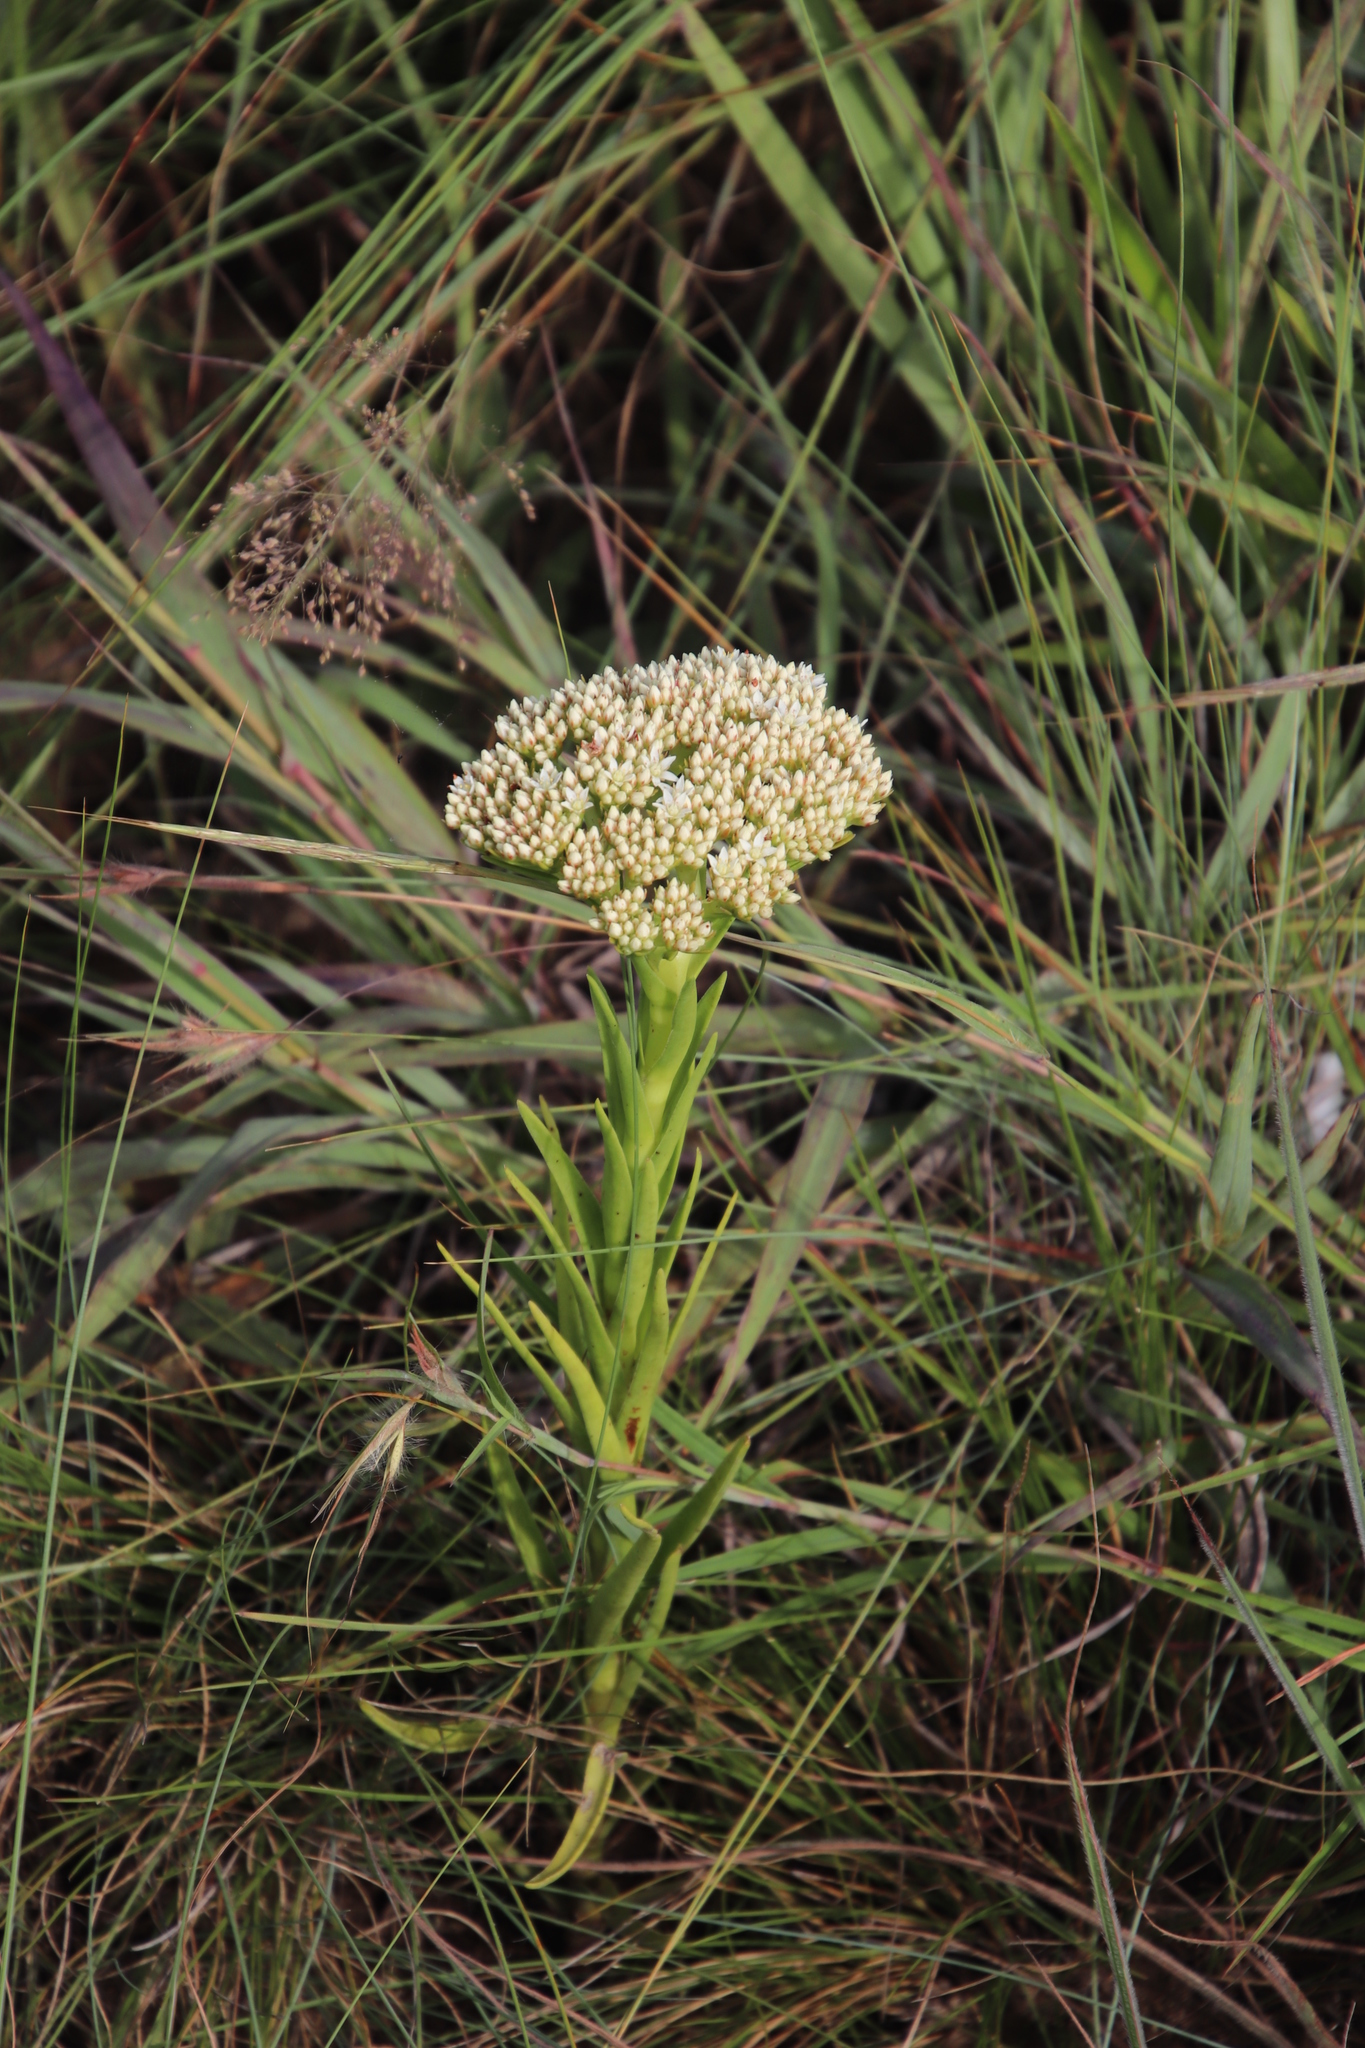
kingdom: Plantae
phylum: Tracheophyta
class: Magnoliopsida
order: Saxifragales
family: Crassulaceae
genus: Crassula
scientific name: Crassula vaginata
